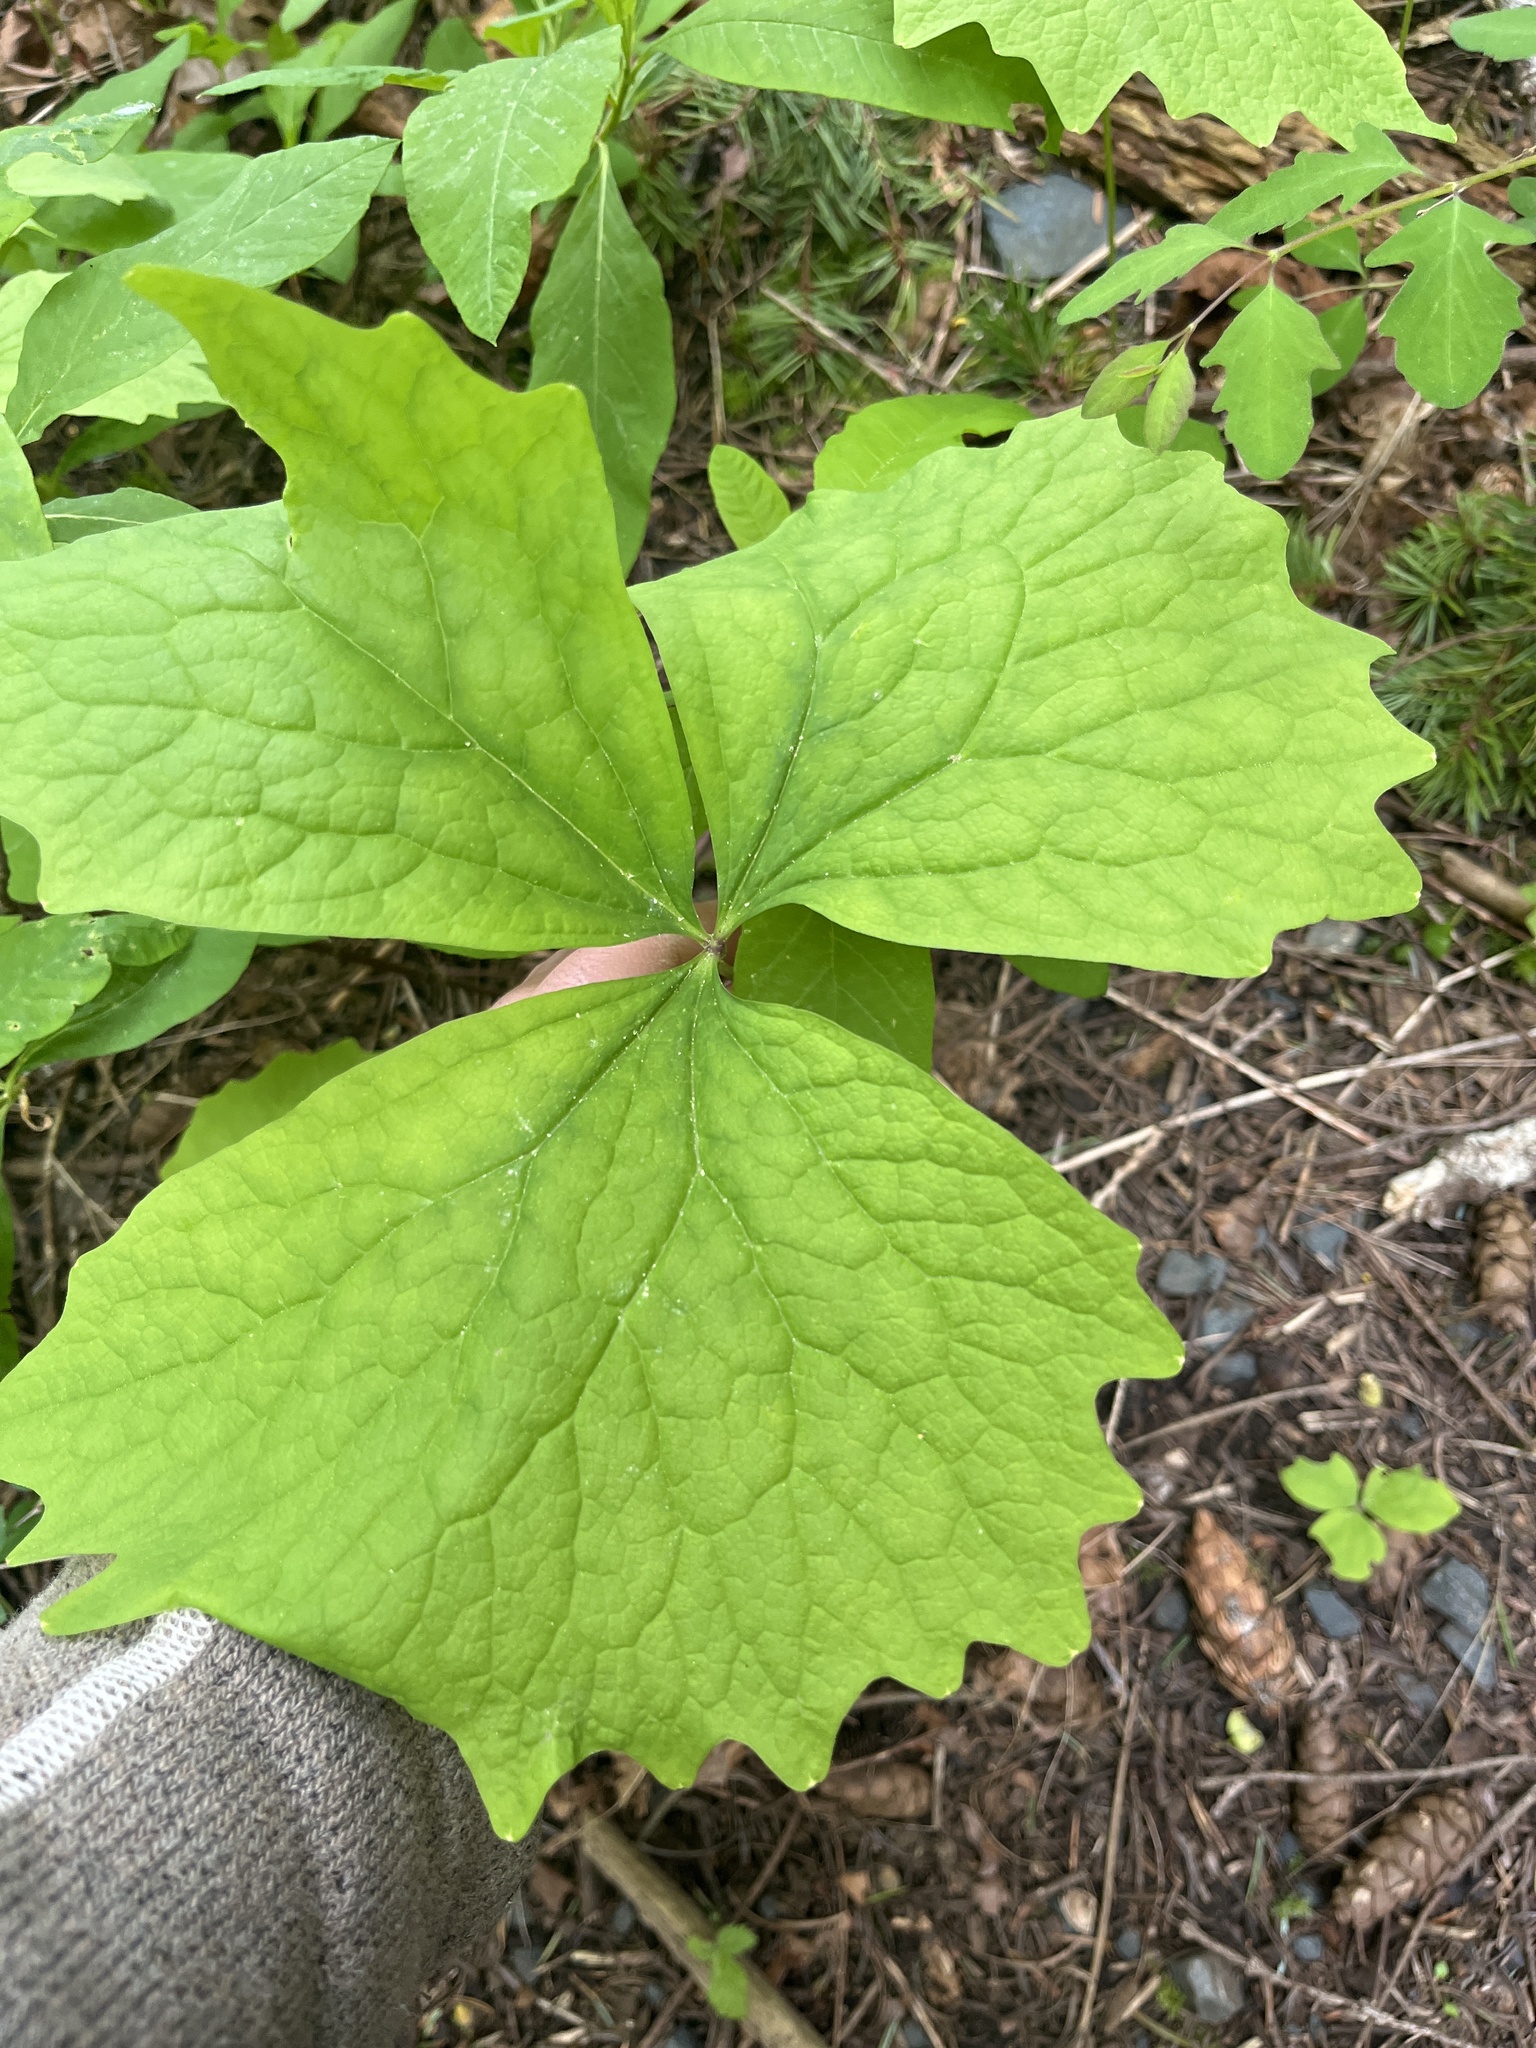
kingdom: Plantae
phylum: Tracheophyta
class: Magnoliopsida
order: Ranunculales
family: Berberidaceae
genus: Achlys
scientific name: Achlys triphylla
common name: Vanilla-leaf
